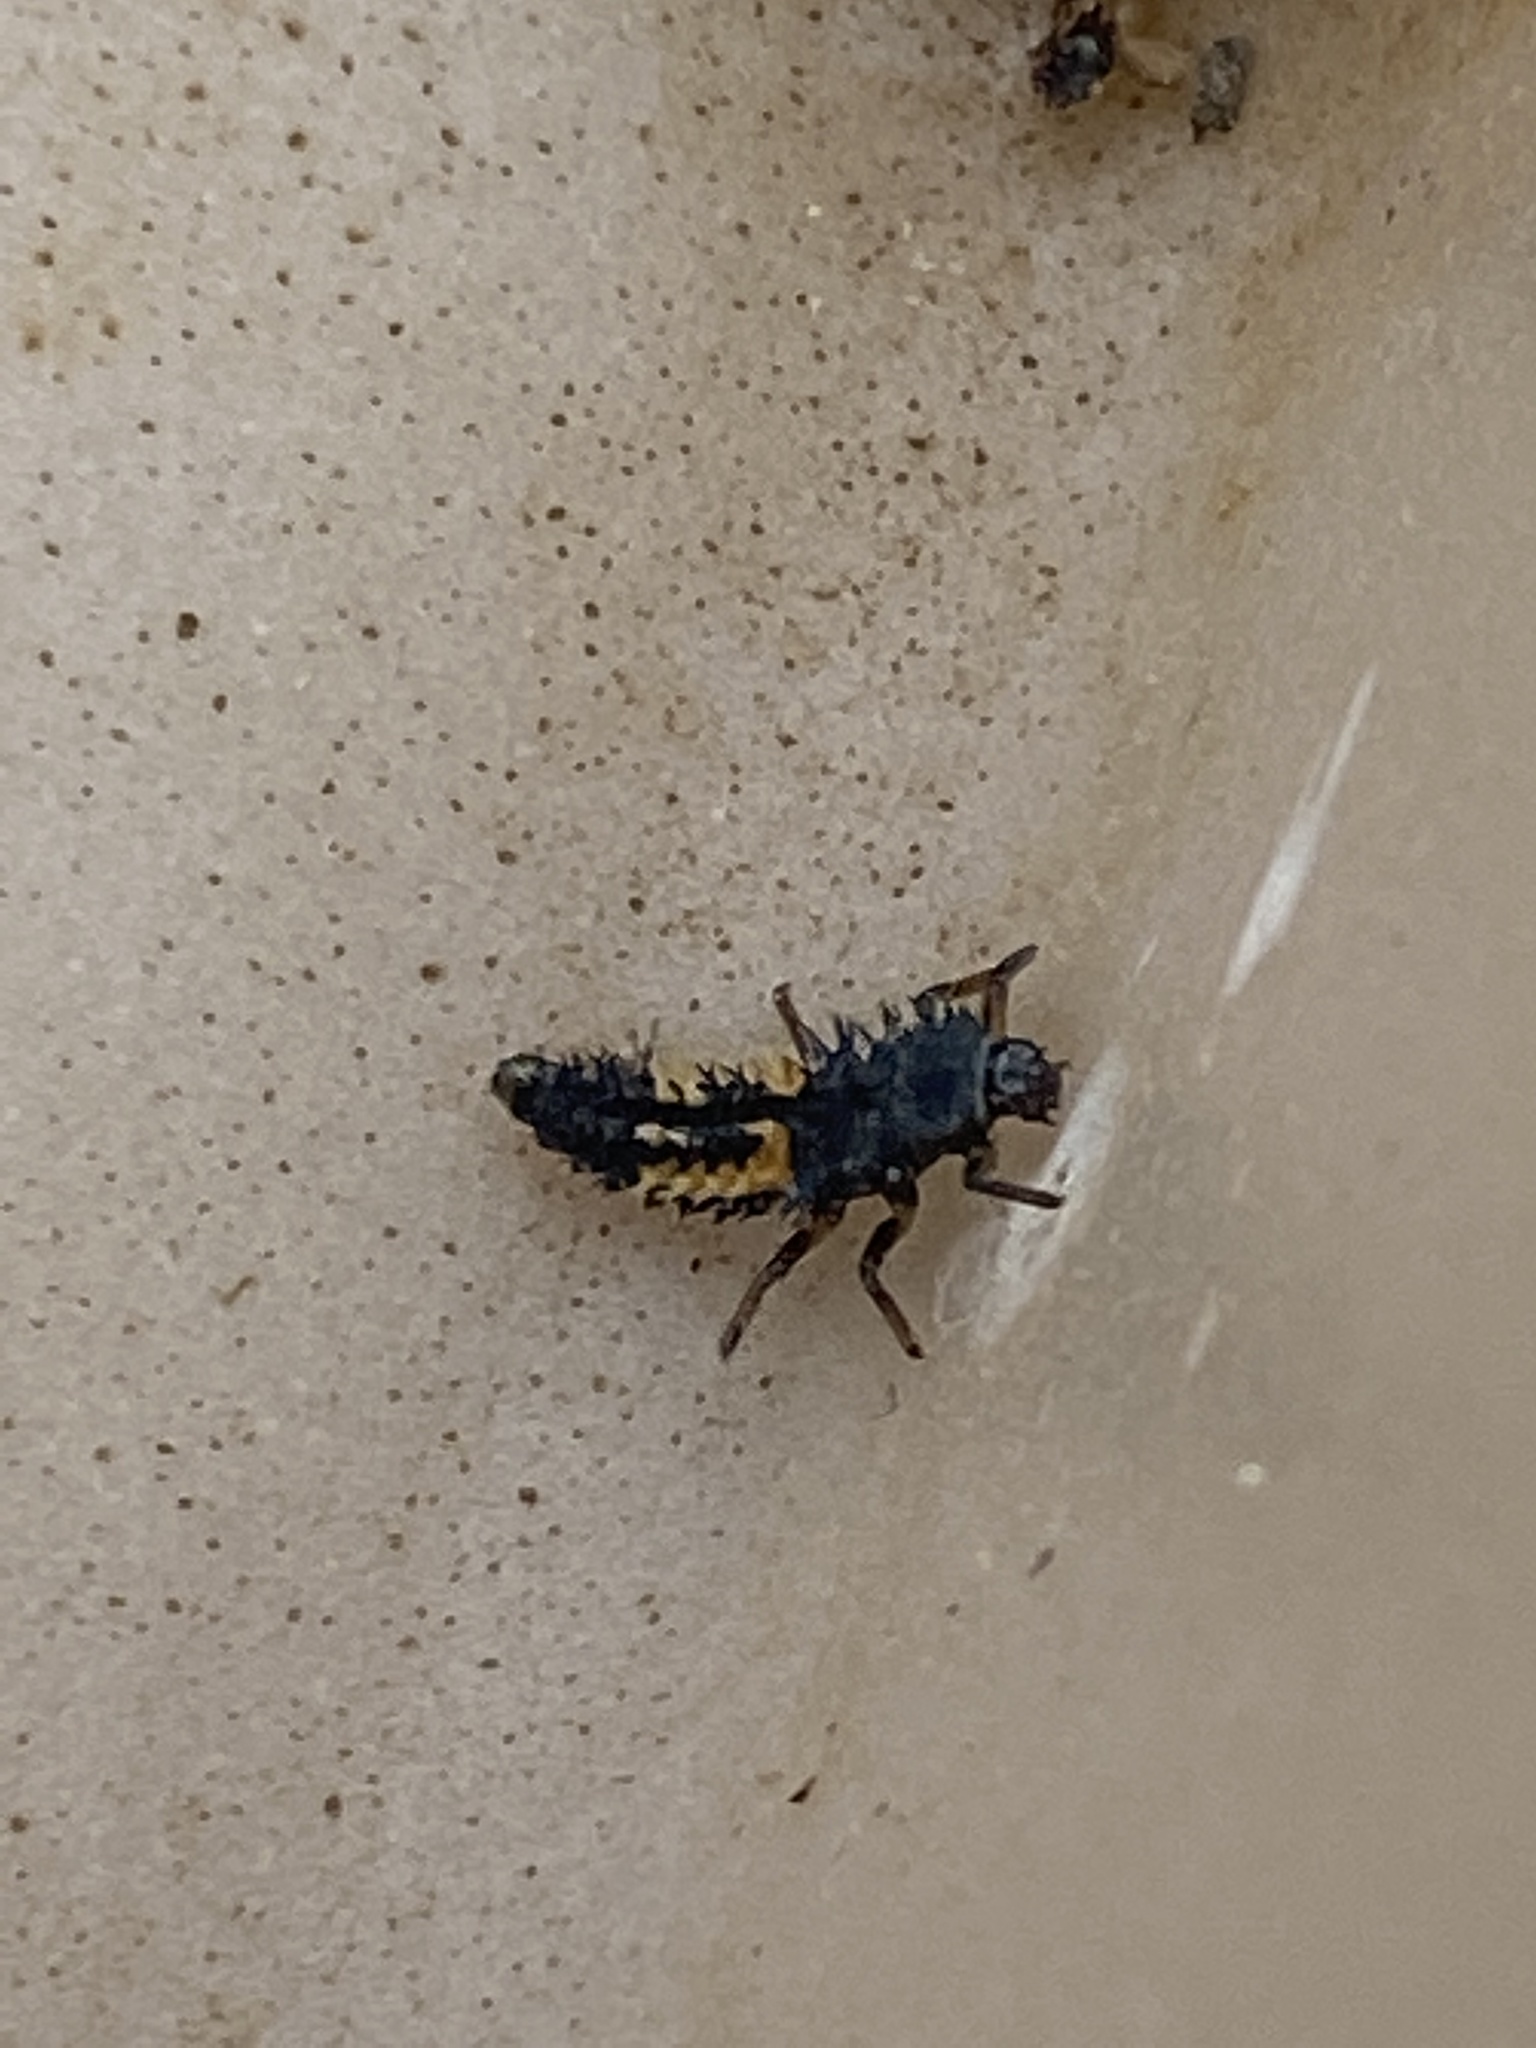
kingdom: Animalia
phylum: Arthropoda
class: Insecta
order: Coleoptera
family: Coccinellidae
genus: Harmonia
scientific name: Harmonia axyridis
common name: Harlequin ladybird
